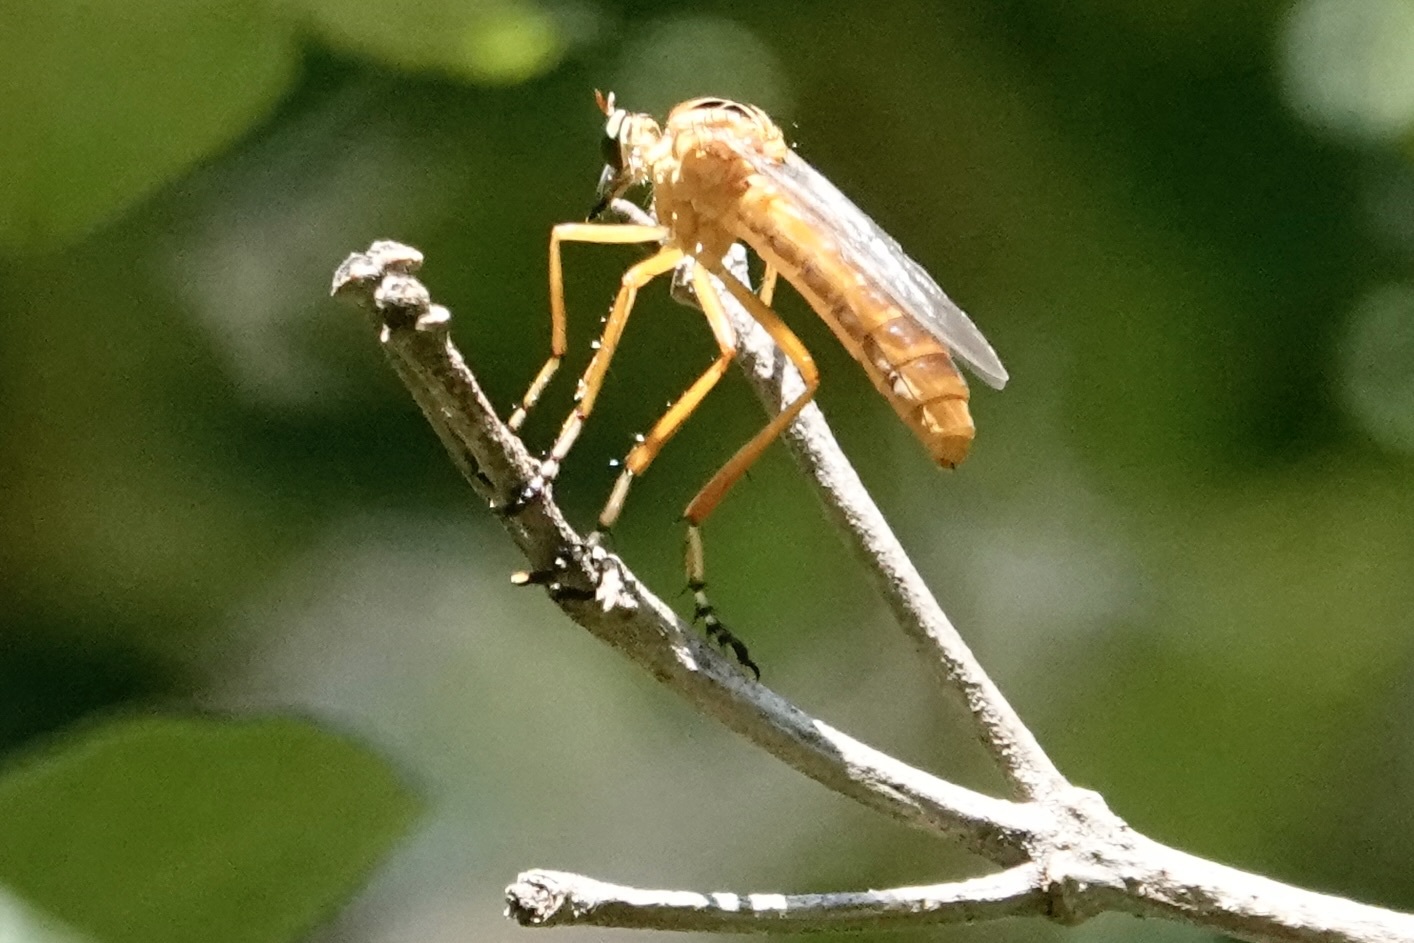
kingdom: Animalia
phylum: Arthropoda
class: Insecta
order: Diptera
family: Asilidae
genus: Diogmites
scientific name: Diogmites neoternatus
